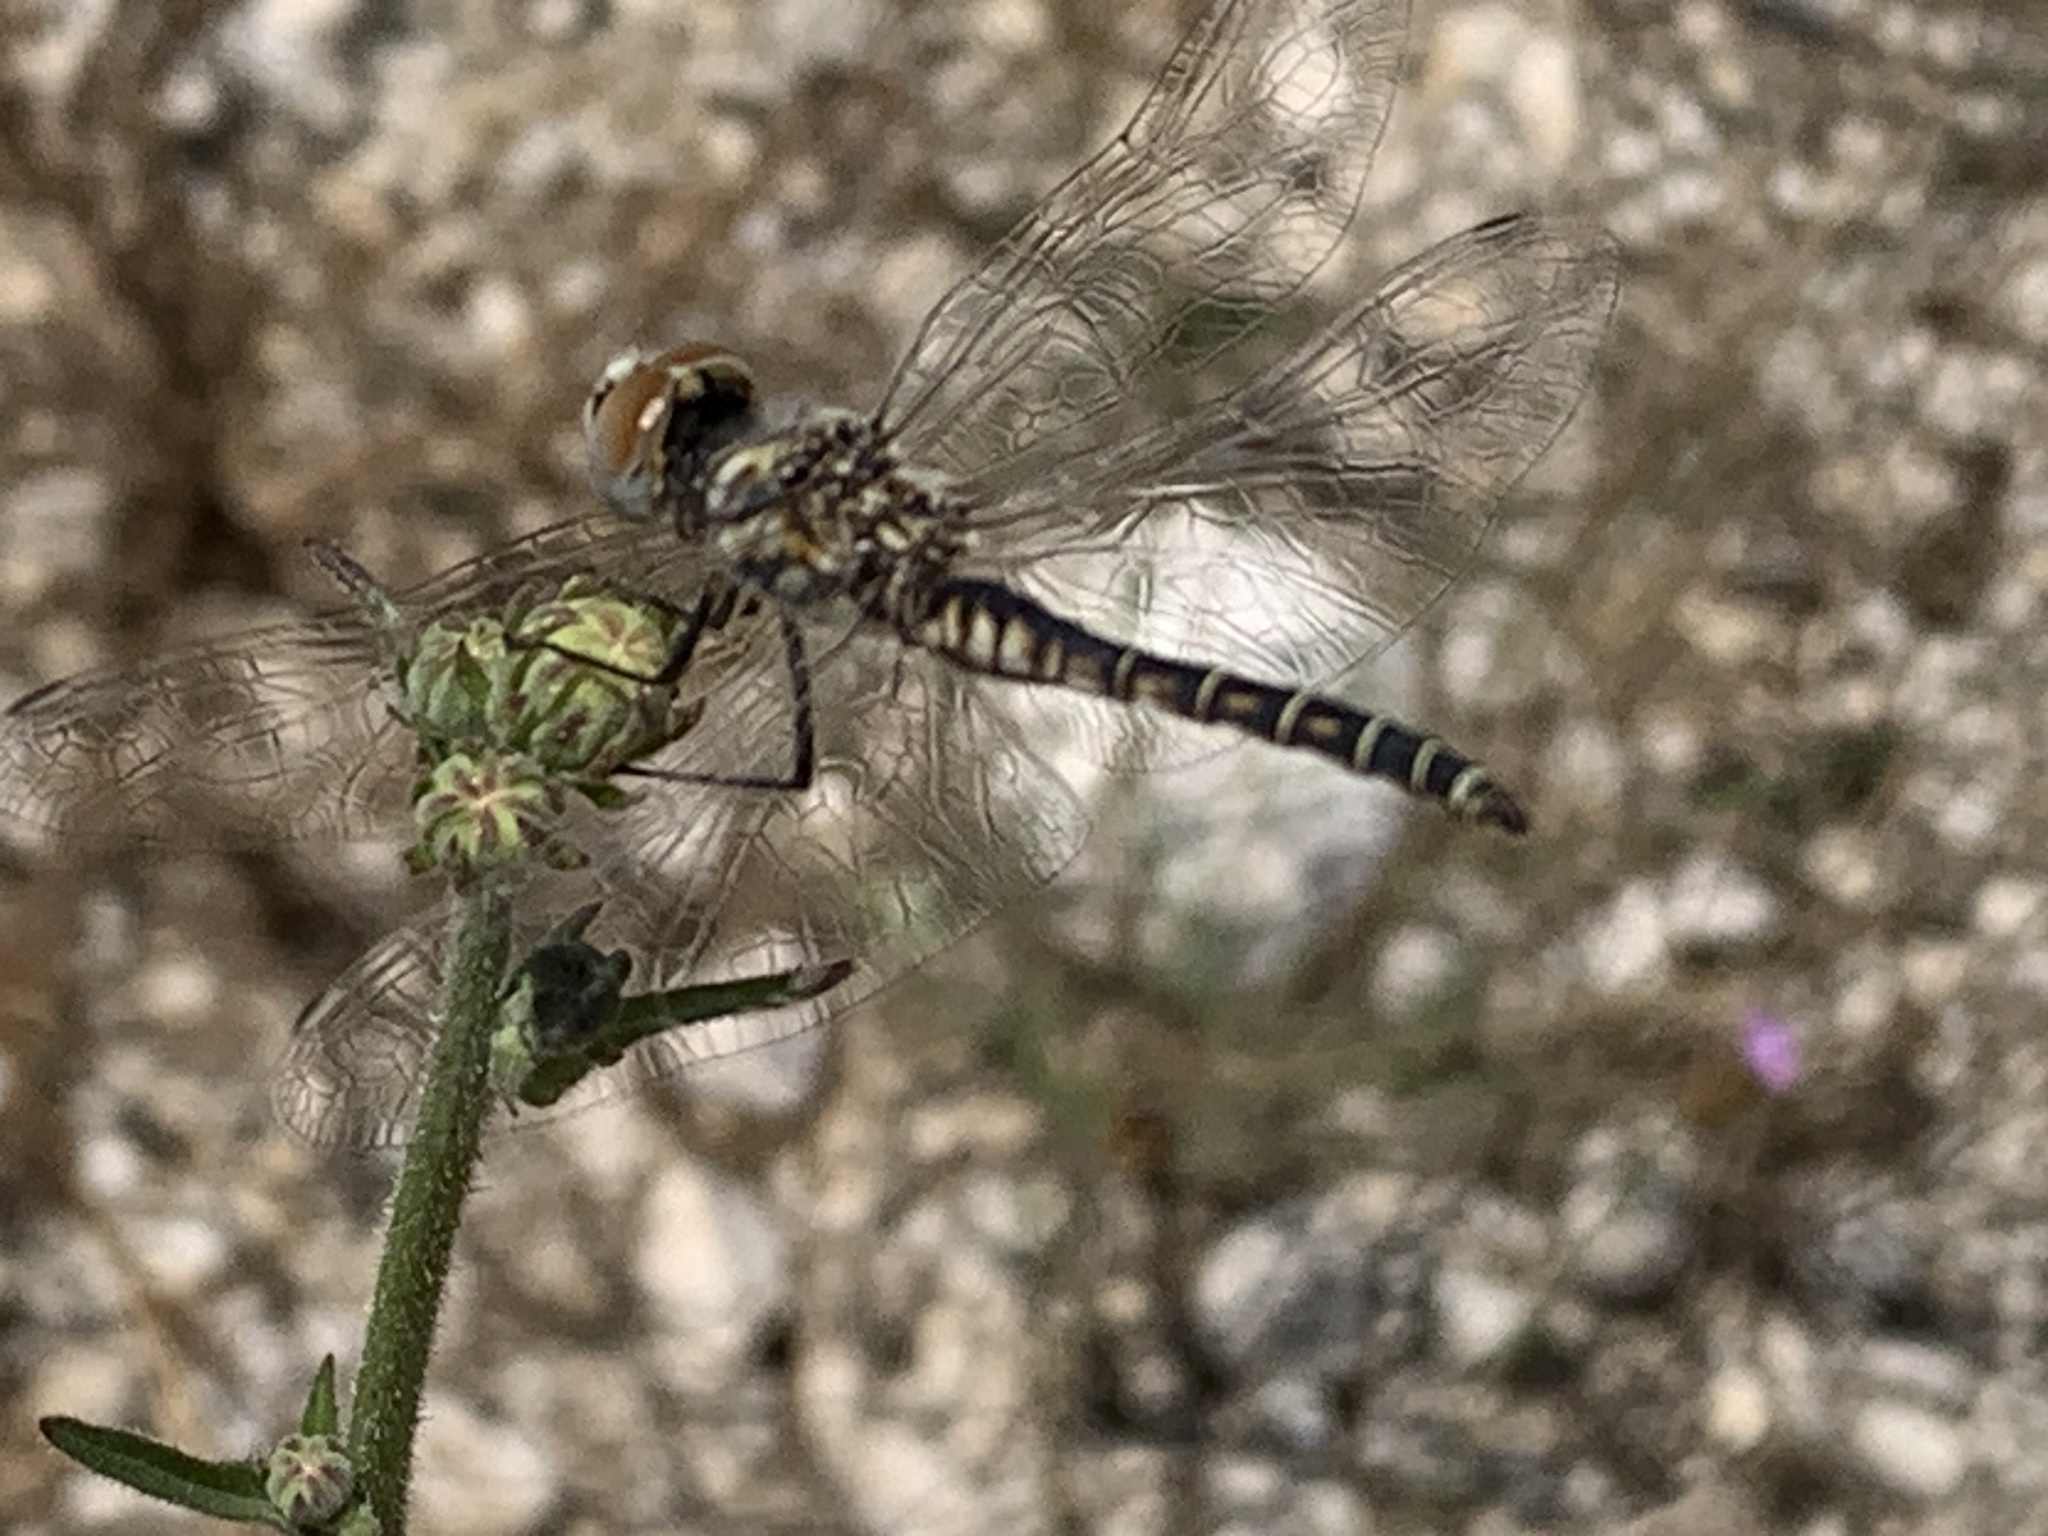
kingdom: Animalia
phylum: Arthropoda
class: Insecta
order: Odonata
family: Libellulidae
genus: Selysiothemis
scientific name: Selysiothemis nigra
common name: Black pennant
